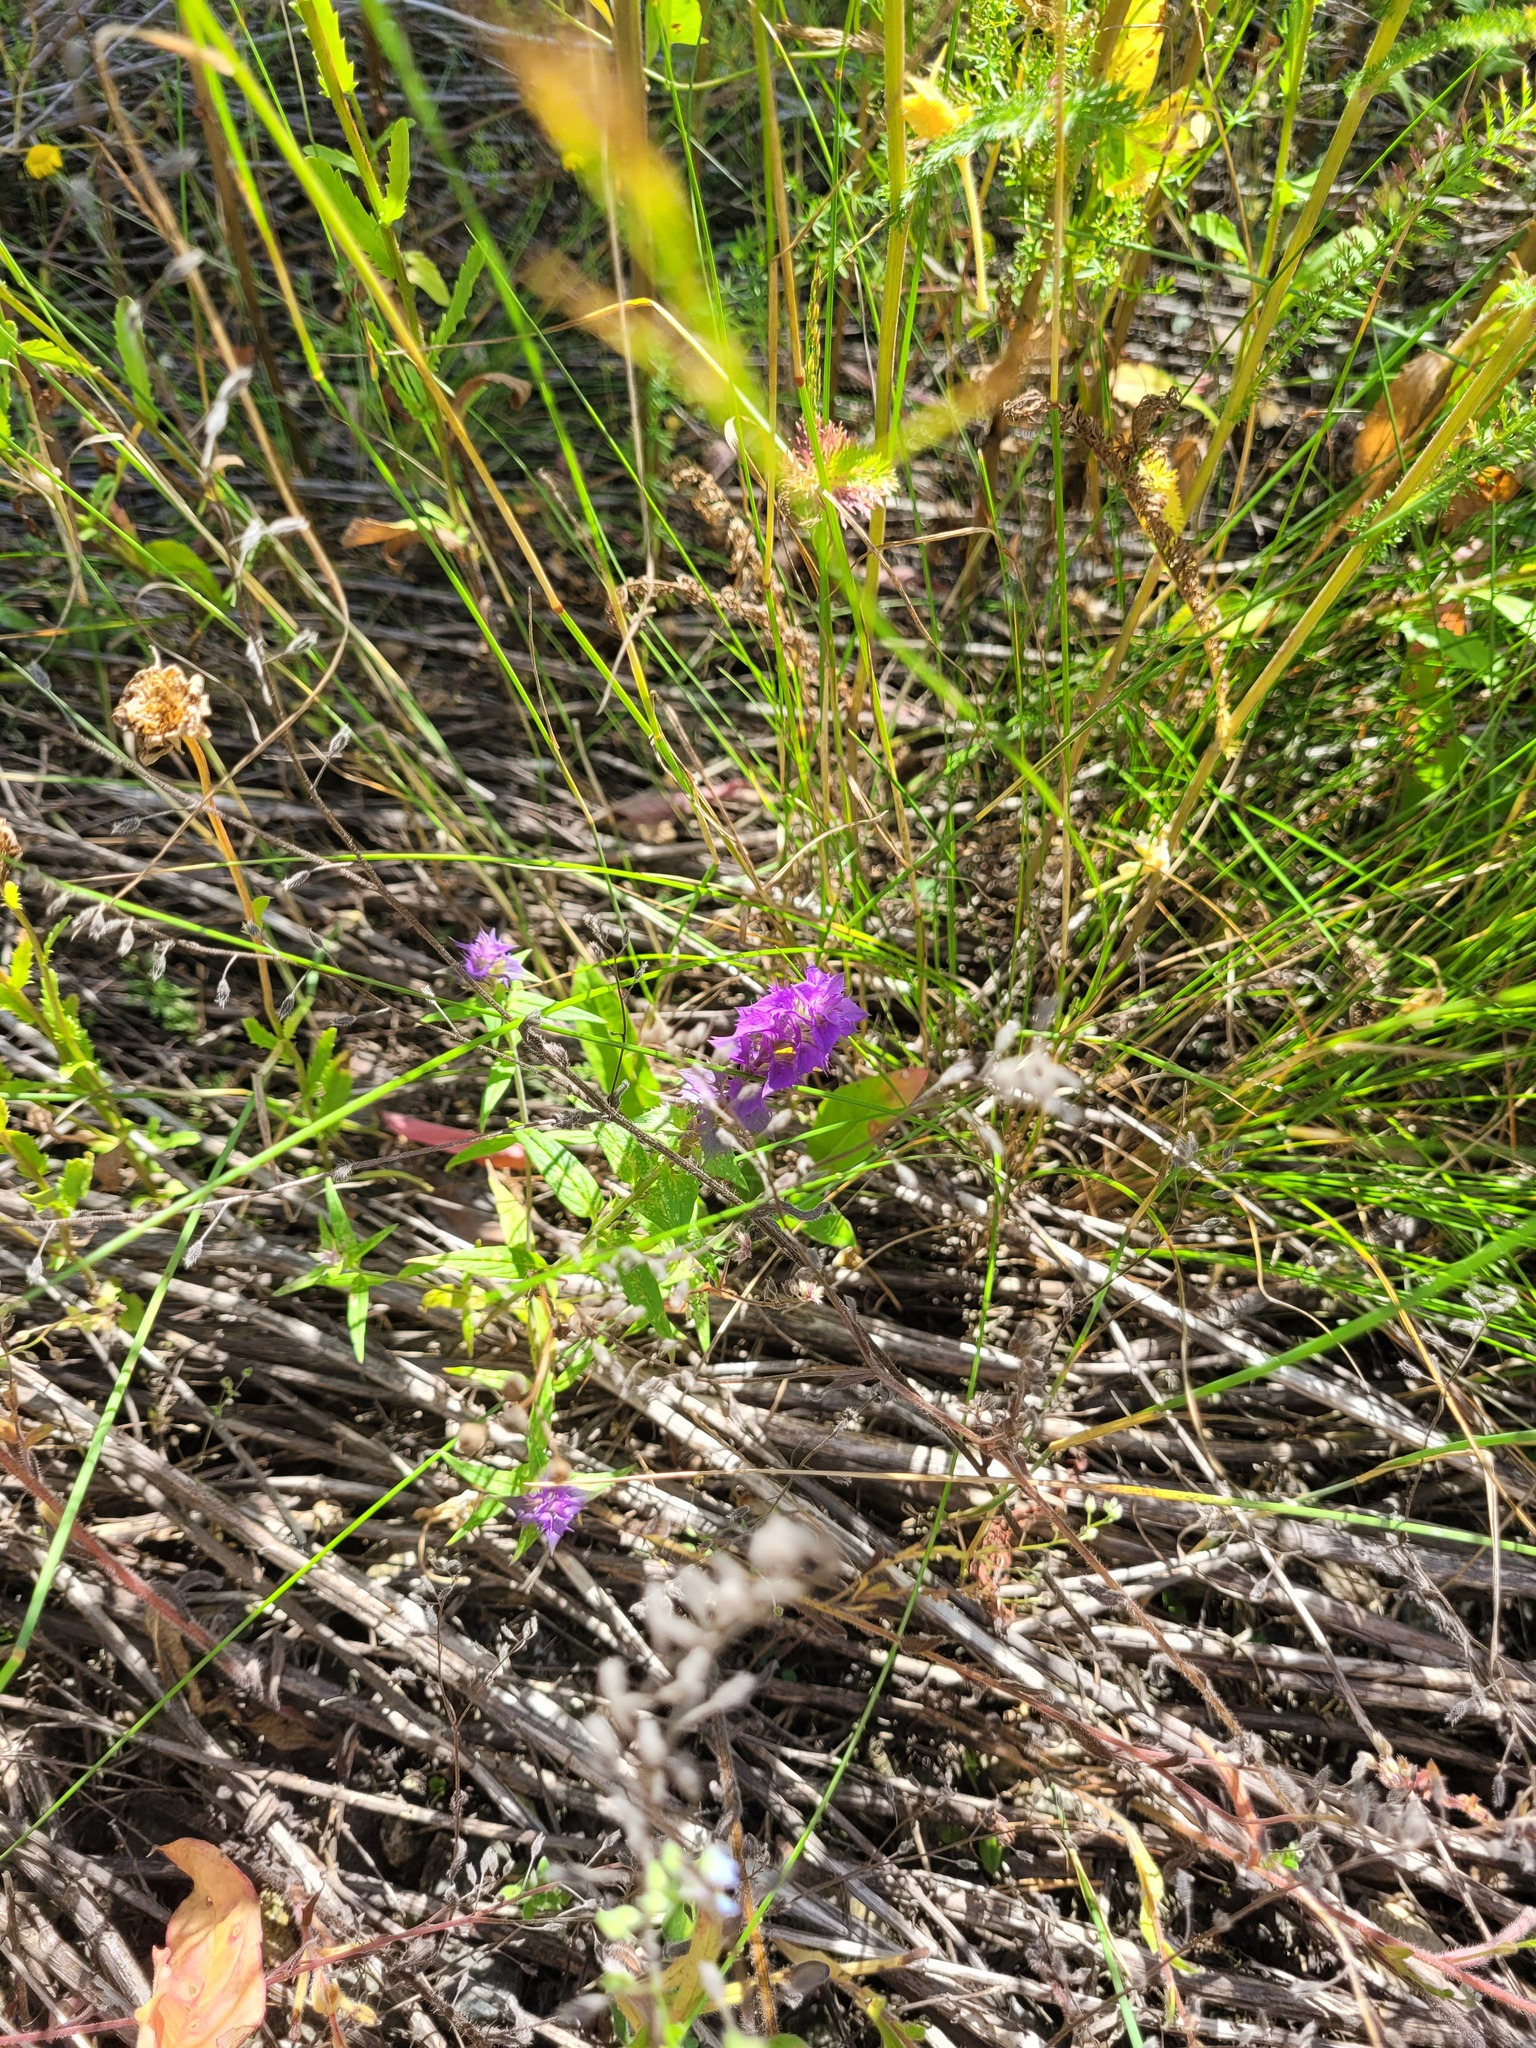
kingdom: Plantae
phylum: Tracheophyta
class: Magnoliopsida
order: Lamiales
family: Orobanchaceae
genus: Melampyrum
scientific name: Melampyrum nemorosum
